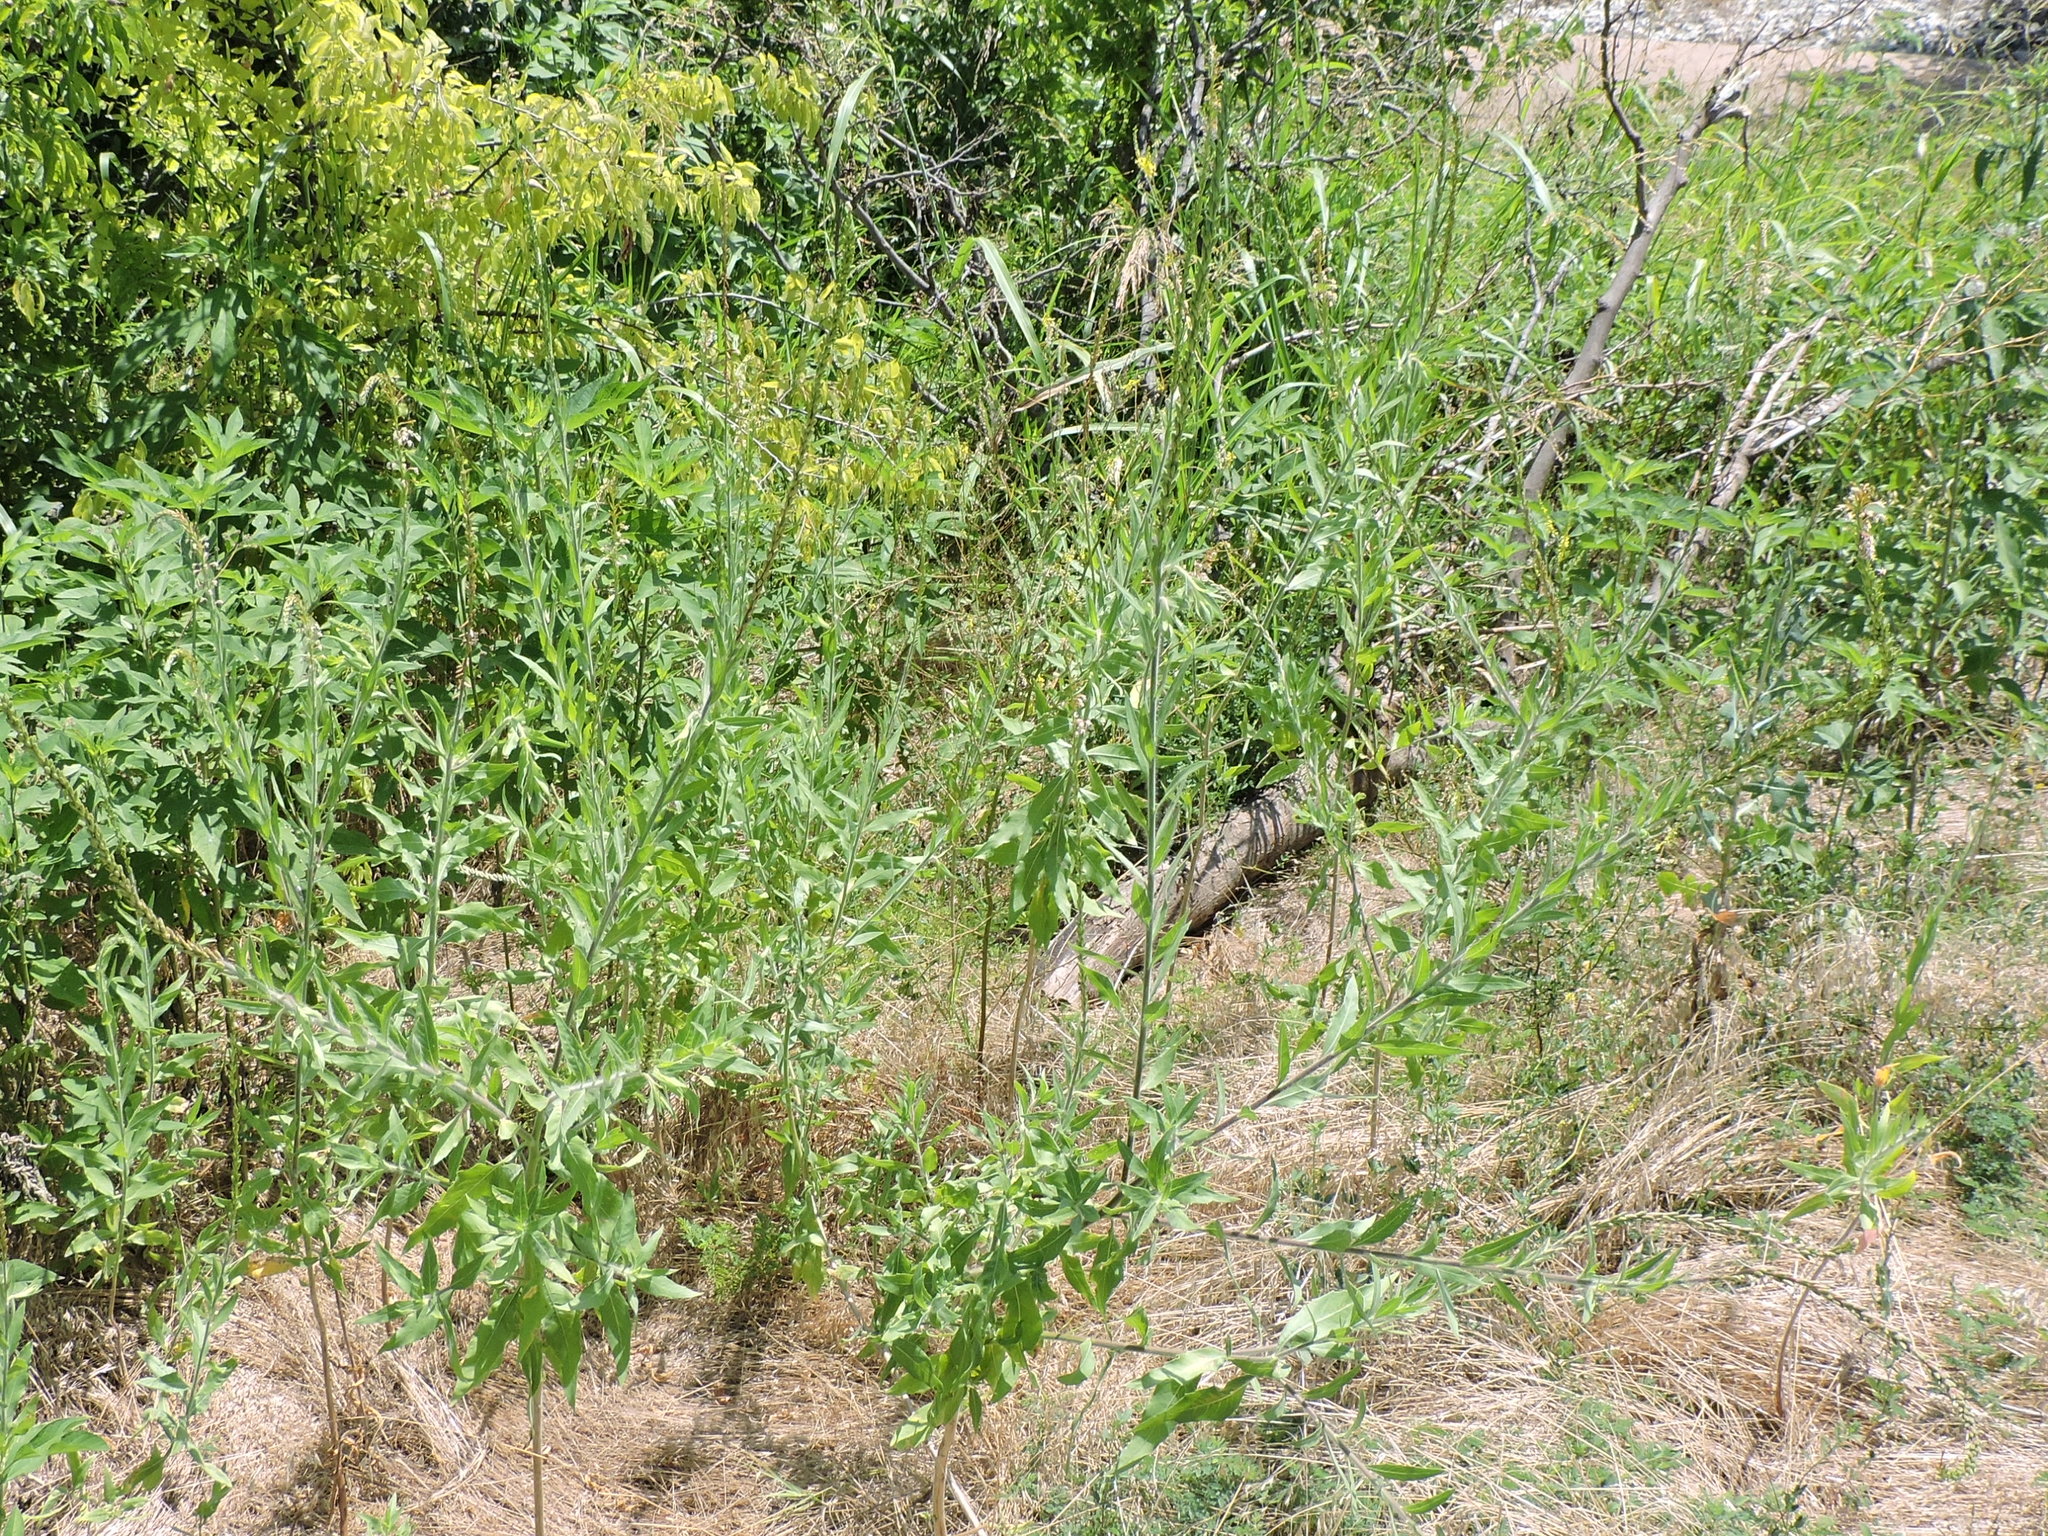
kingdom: Plantae
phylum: Tracheophyta
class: Magnoliopsida
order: Myrtales
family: Onagraceae
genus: Oenothera
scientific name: Oenothera curtiflora
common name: Velvetweed
